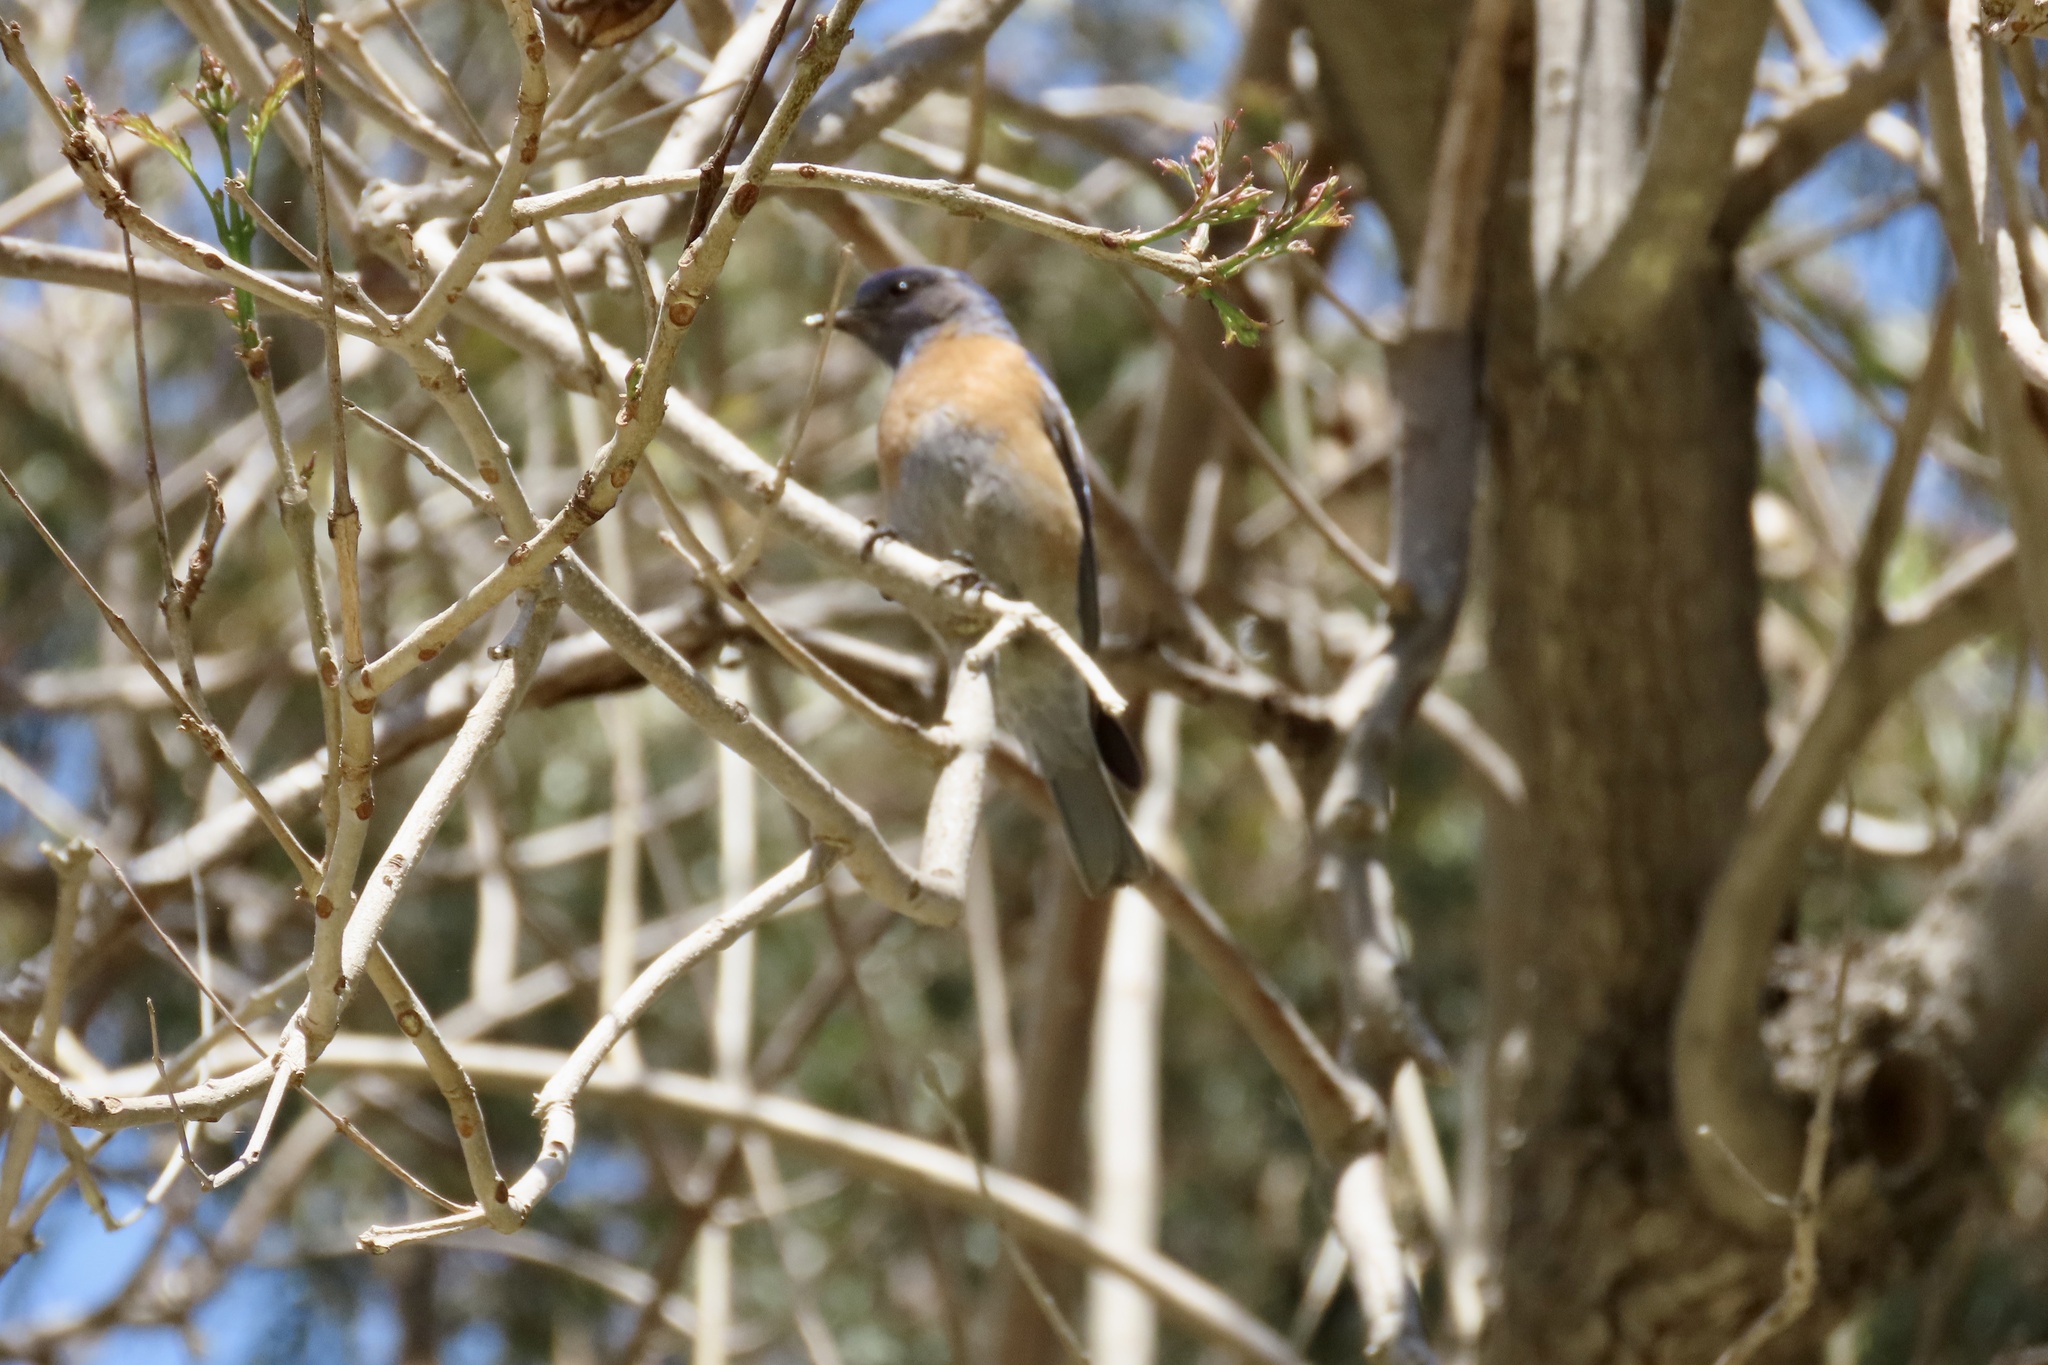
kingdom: Animalia
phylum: Chordata
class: Aves
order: Passeriformes
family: Turdidae
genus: Sialia
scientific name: Sialia mexicana
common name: Western bluebird
